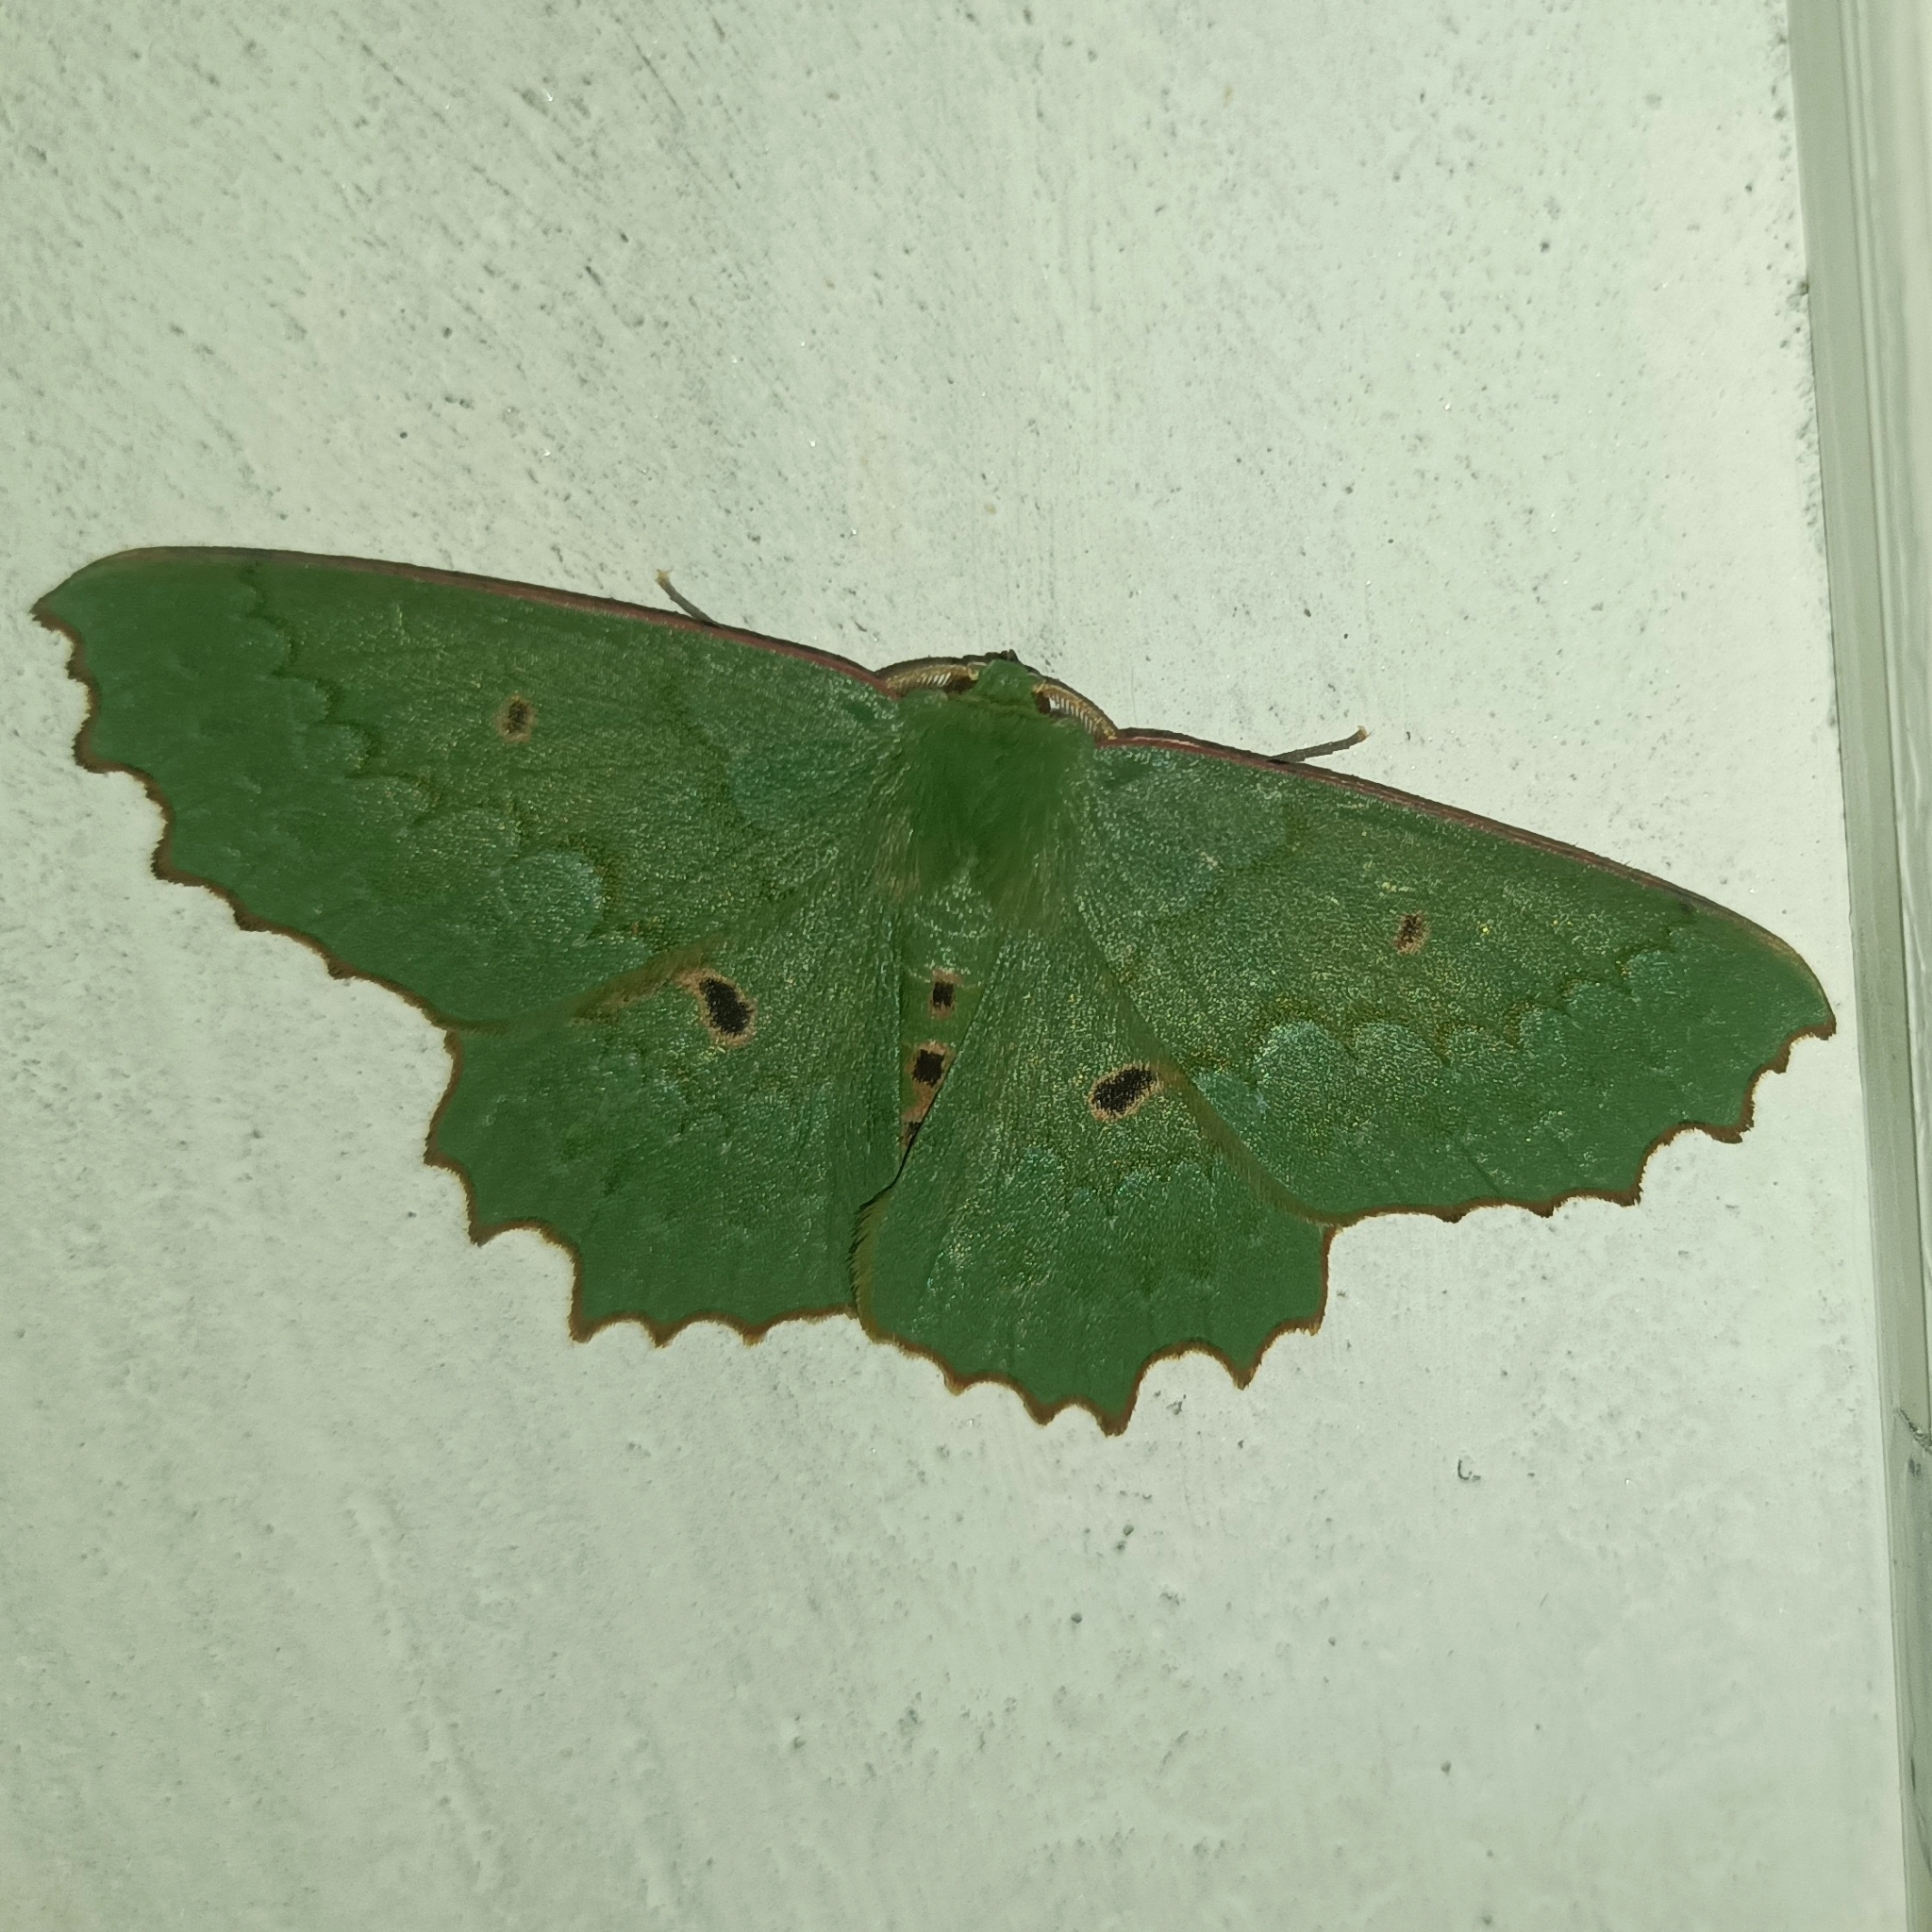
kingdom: Animalia
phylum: Arthropoda
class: Insecta
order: Lepidoptera
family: Geometridae
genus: Chlorodontopera
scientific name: Chlorodontopera discospilata
